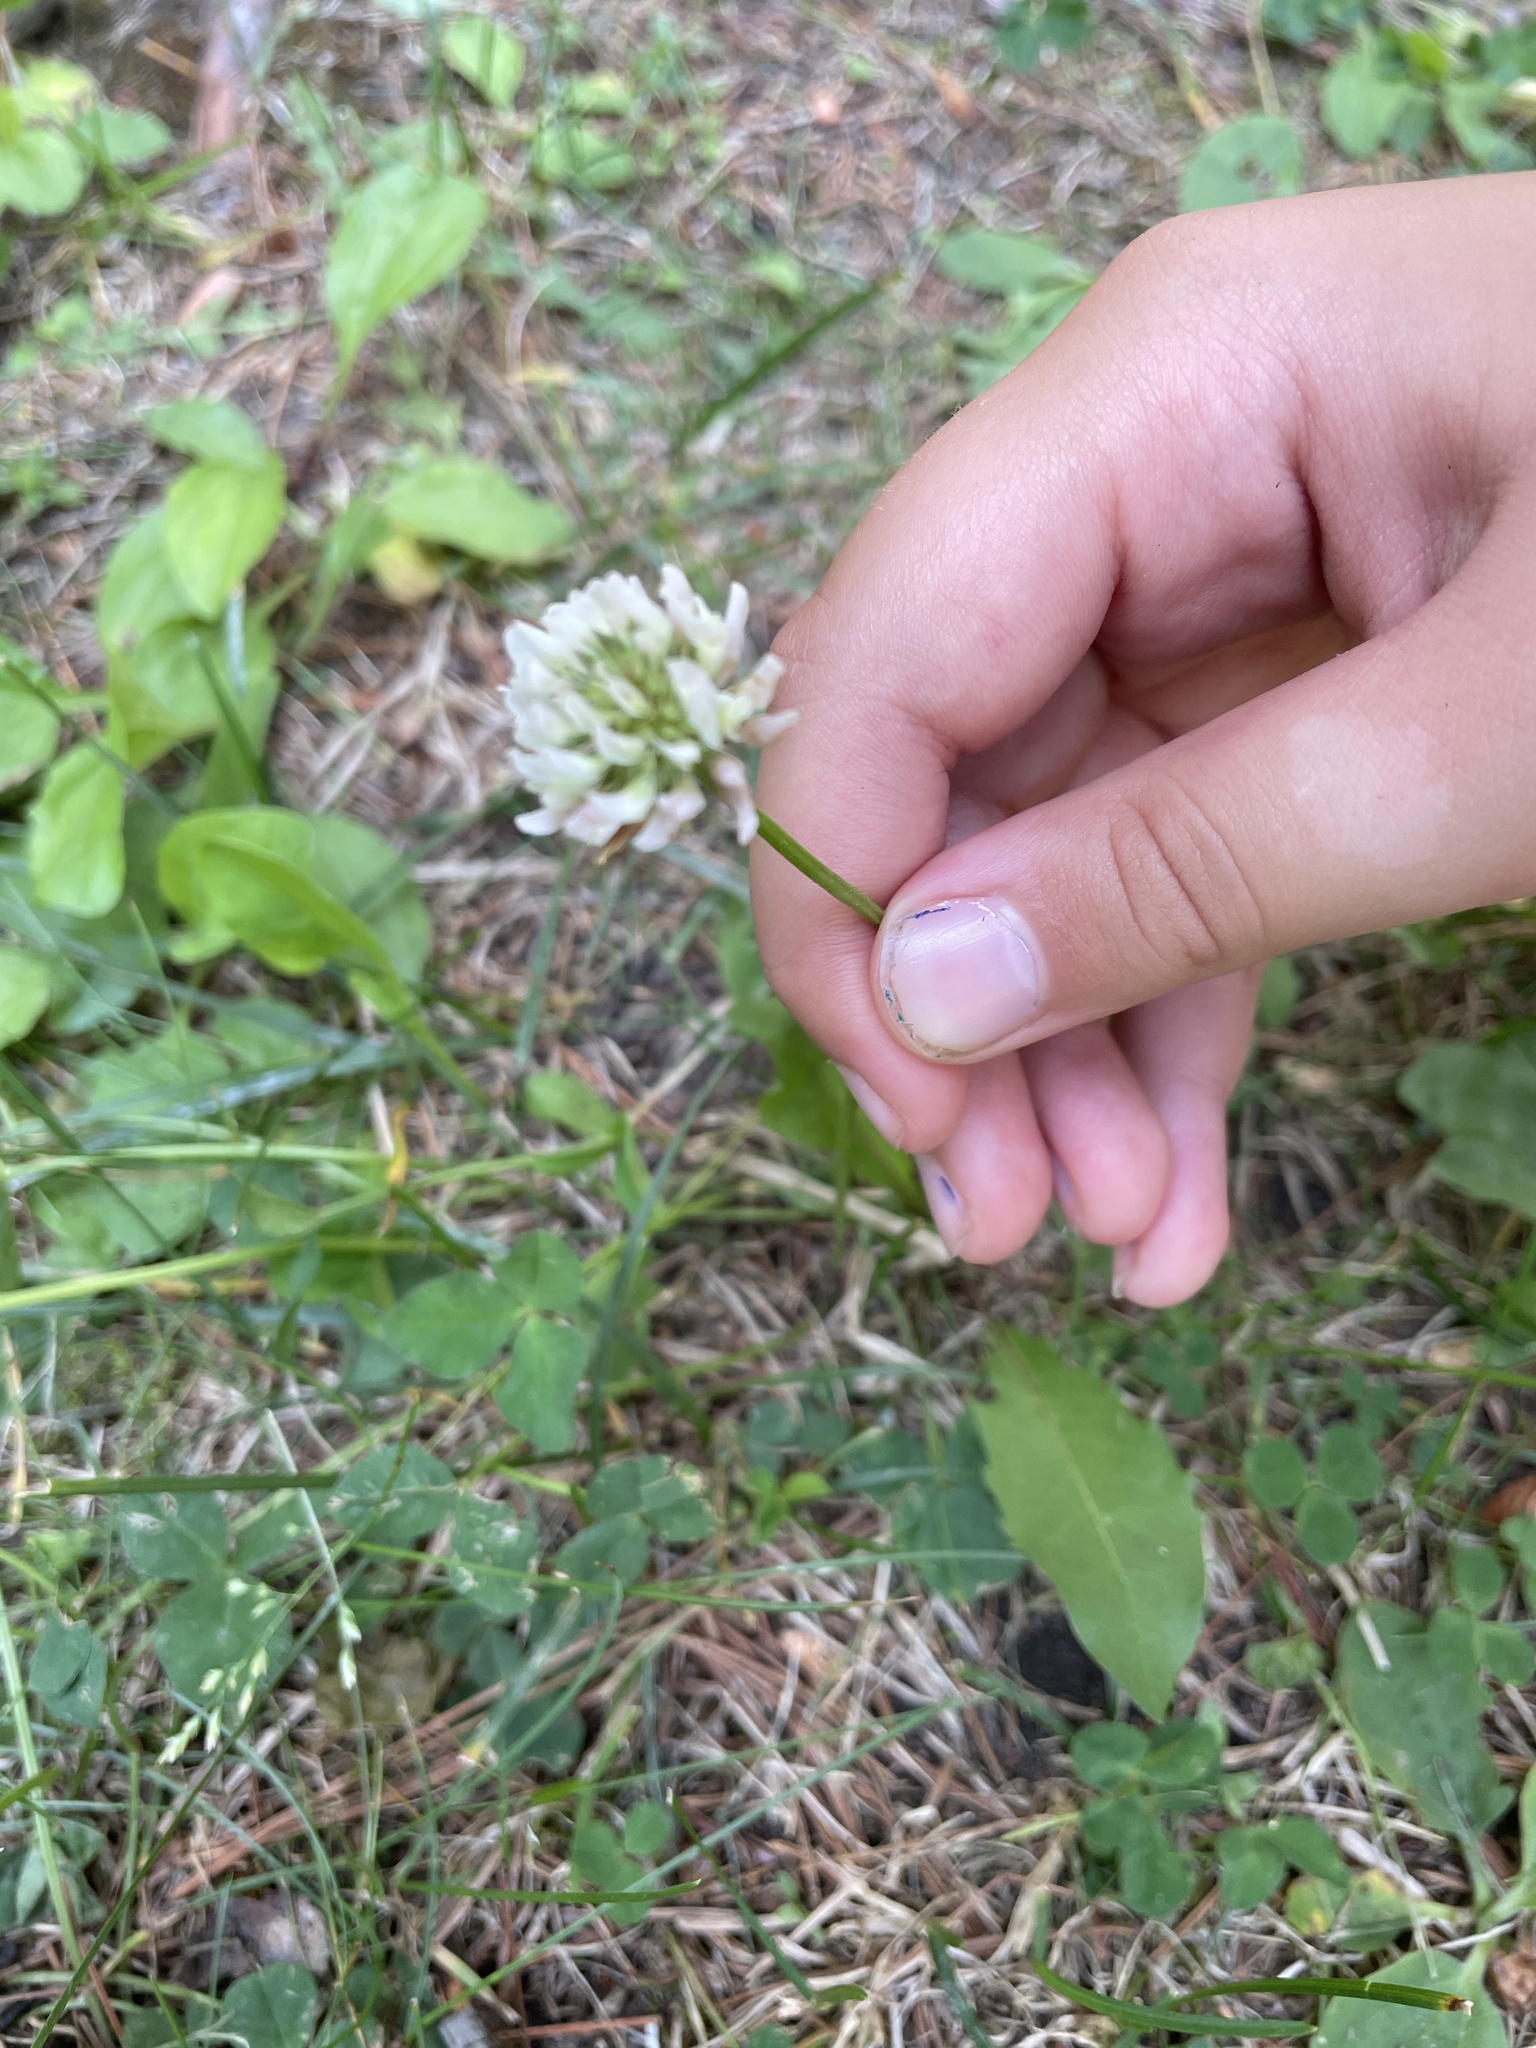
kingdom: Plantae
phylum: Tracheophyta
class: Magnoliopsida
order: Fabales
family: Fabaceae
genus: Trifolium
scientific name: Trifolium repens
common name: White clover
